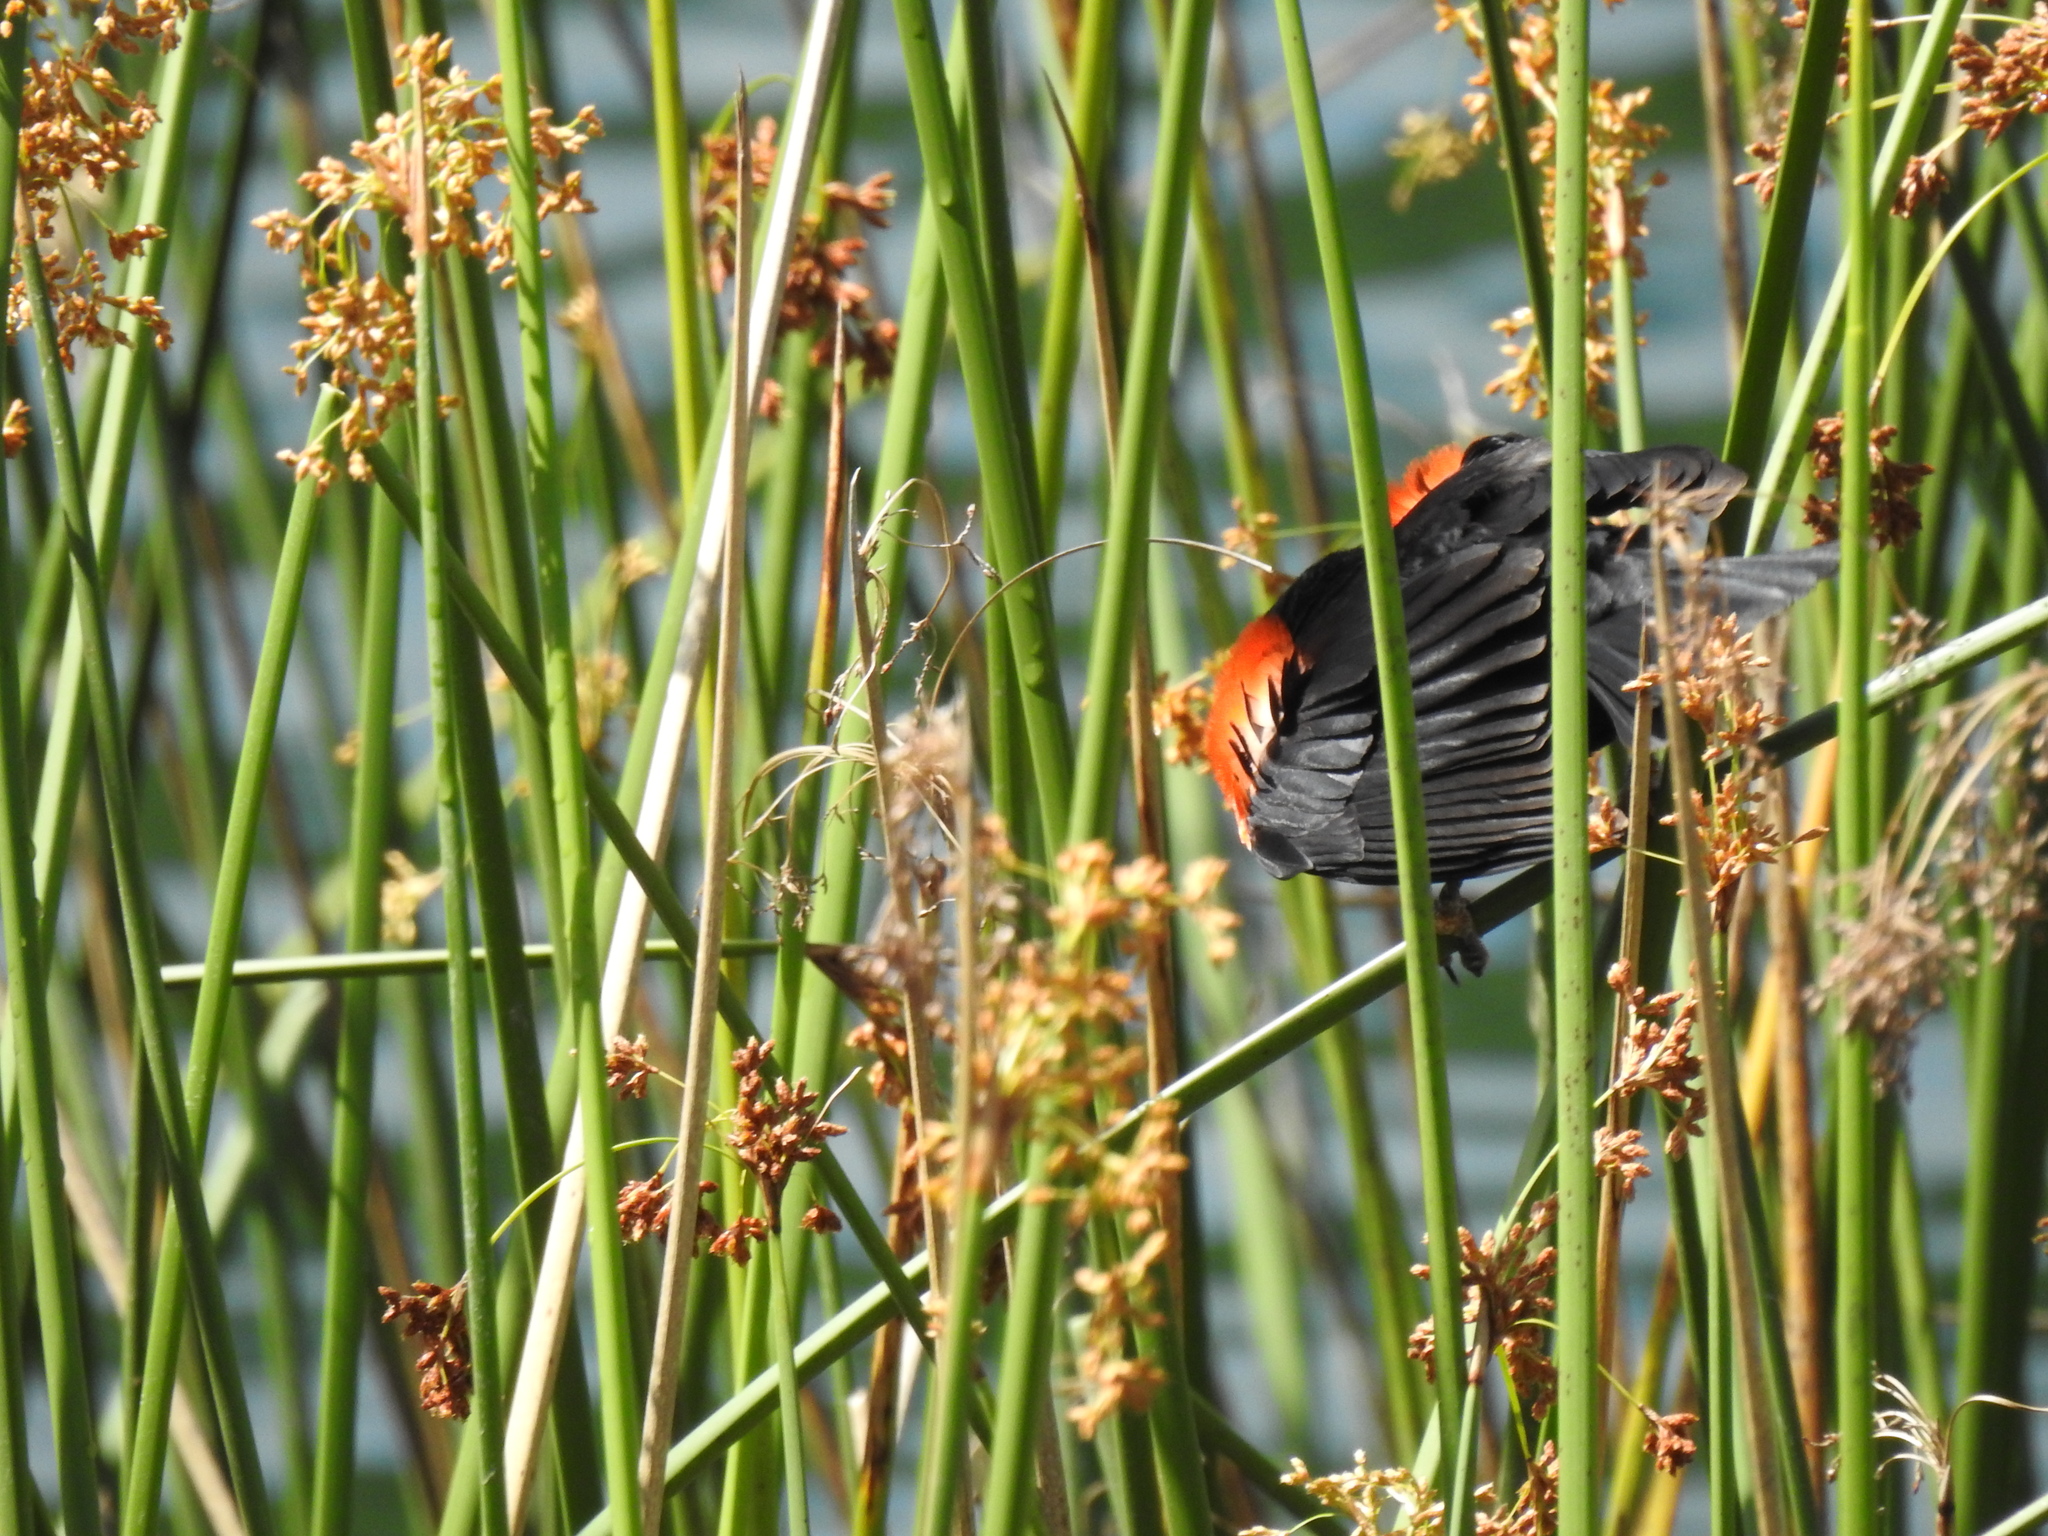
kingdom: Animalia
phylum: Chordata
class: Aves
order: Passeriformes
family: Icteridae
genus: Agelaius
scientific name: Agelaius phoeniceus
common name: Red-winged blackbird
